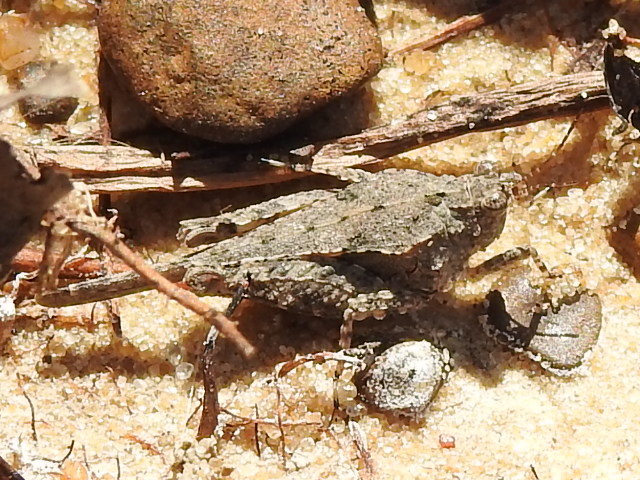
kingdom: Animalia
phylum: Arthropoda
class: Insecta
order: Orthoptera
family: Tetrigidae
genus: Paratettix
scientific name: Paratettix mexicanus
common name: Mexican pygmy grasshopper
